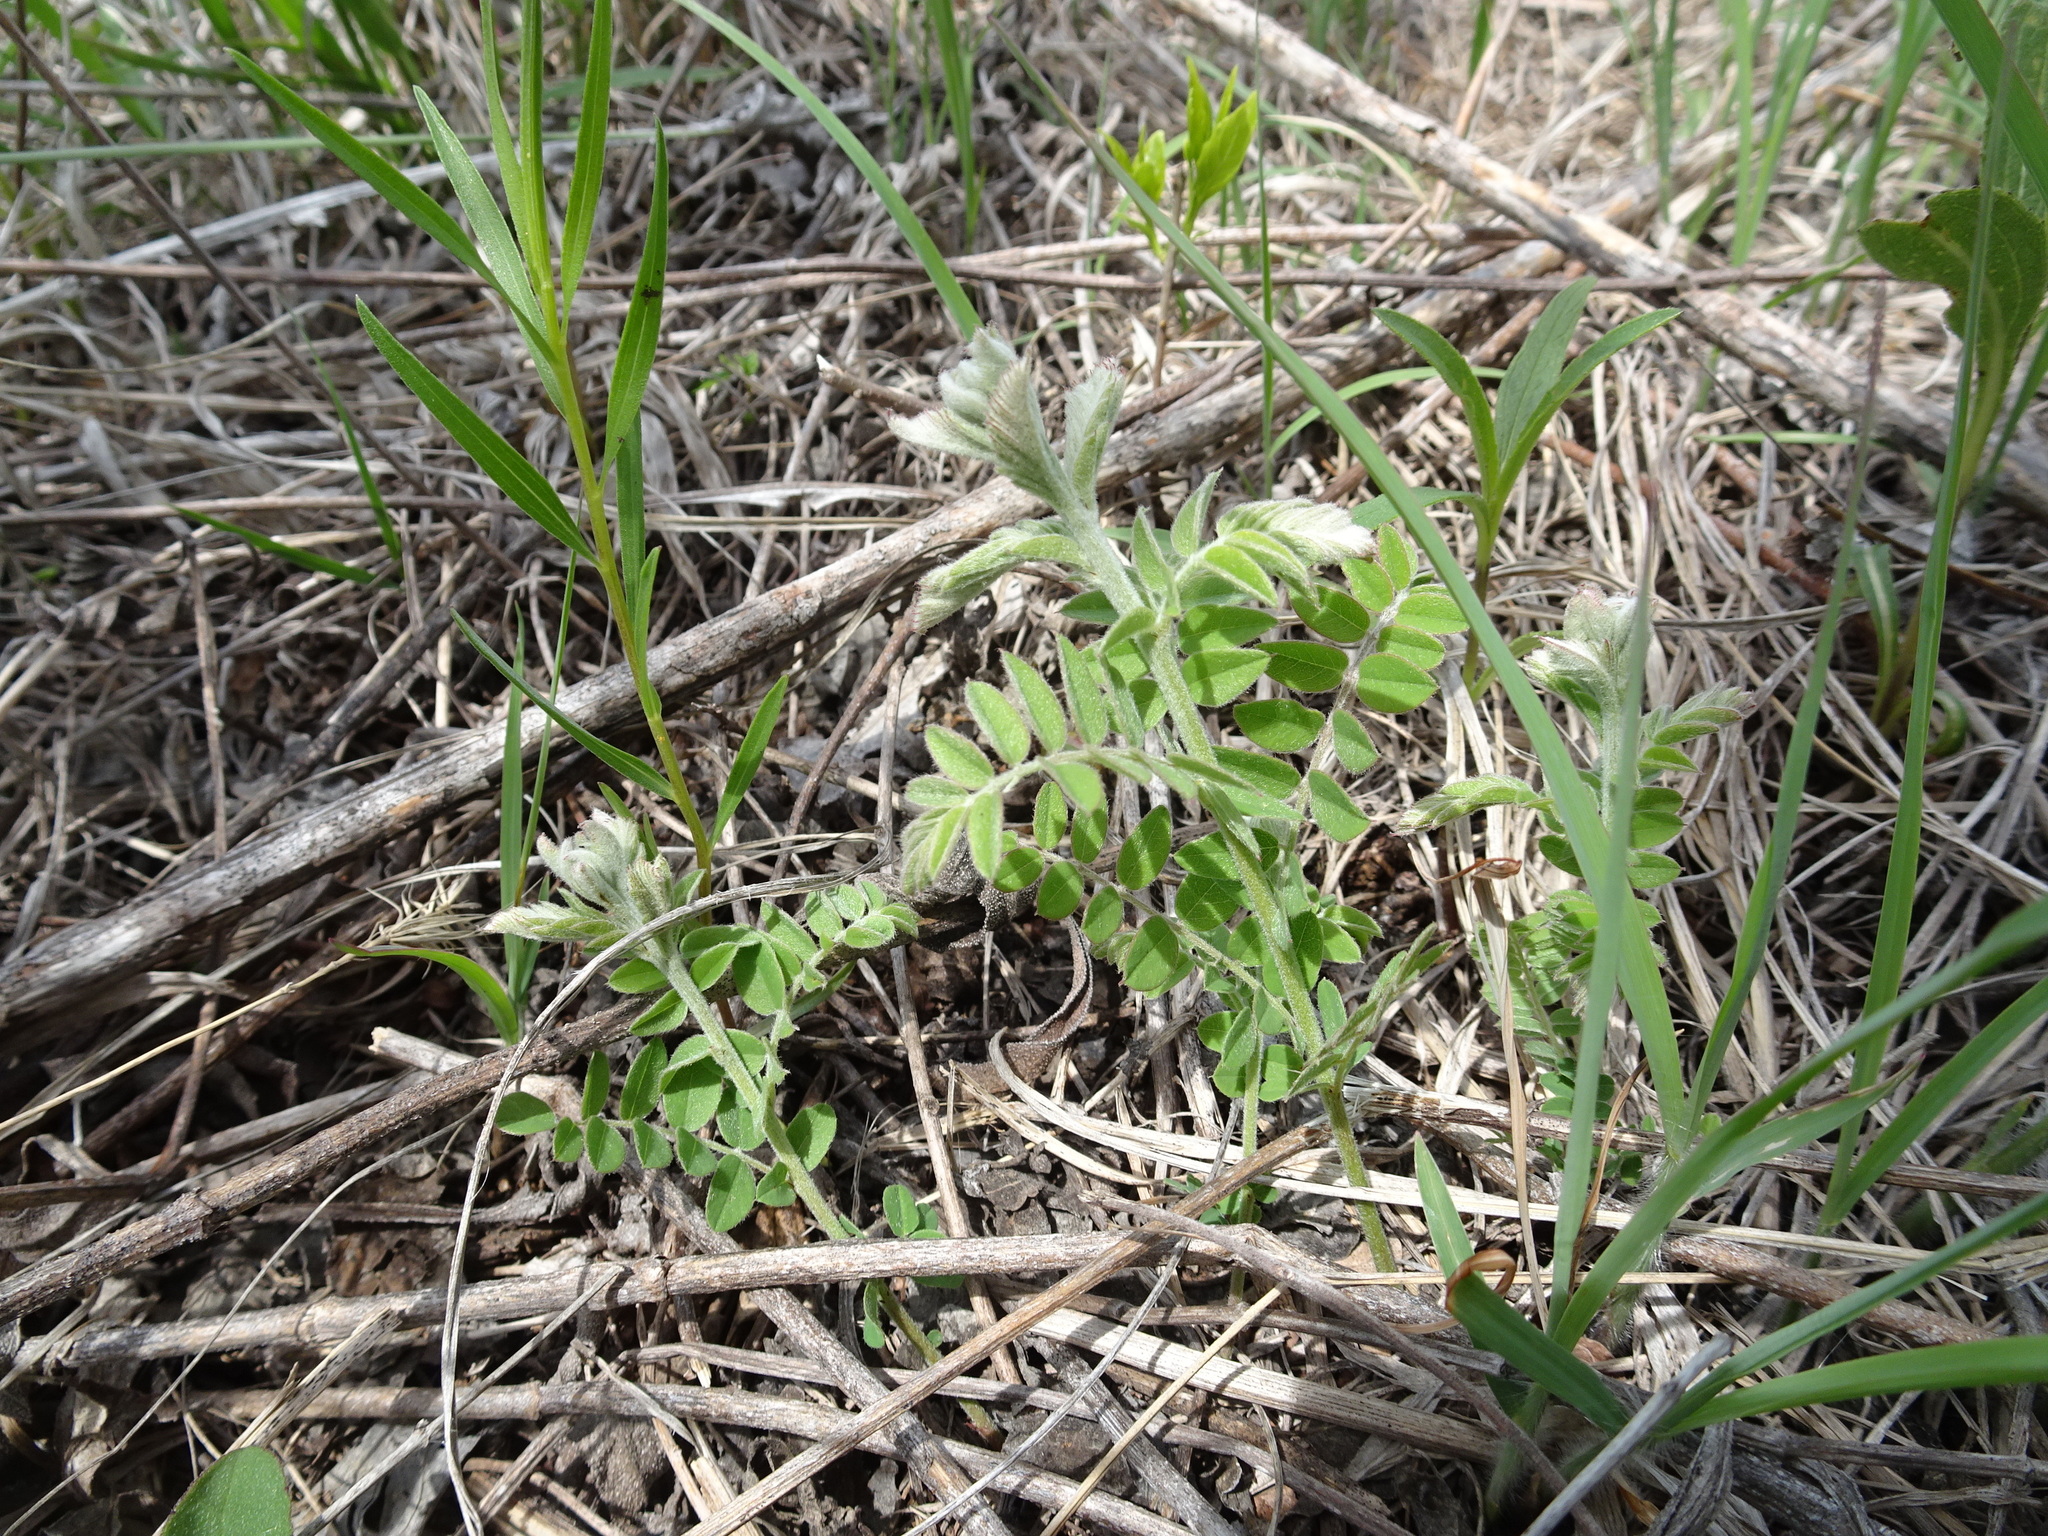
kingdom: Plantae
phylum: Tracheophyta
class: Magnoliopsida
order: Fabales
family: Fabaceae
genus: Tephrosia
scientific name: Tephrosia virginiana
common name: Rabbit-pea
